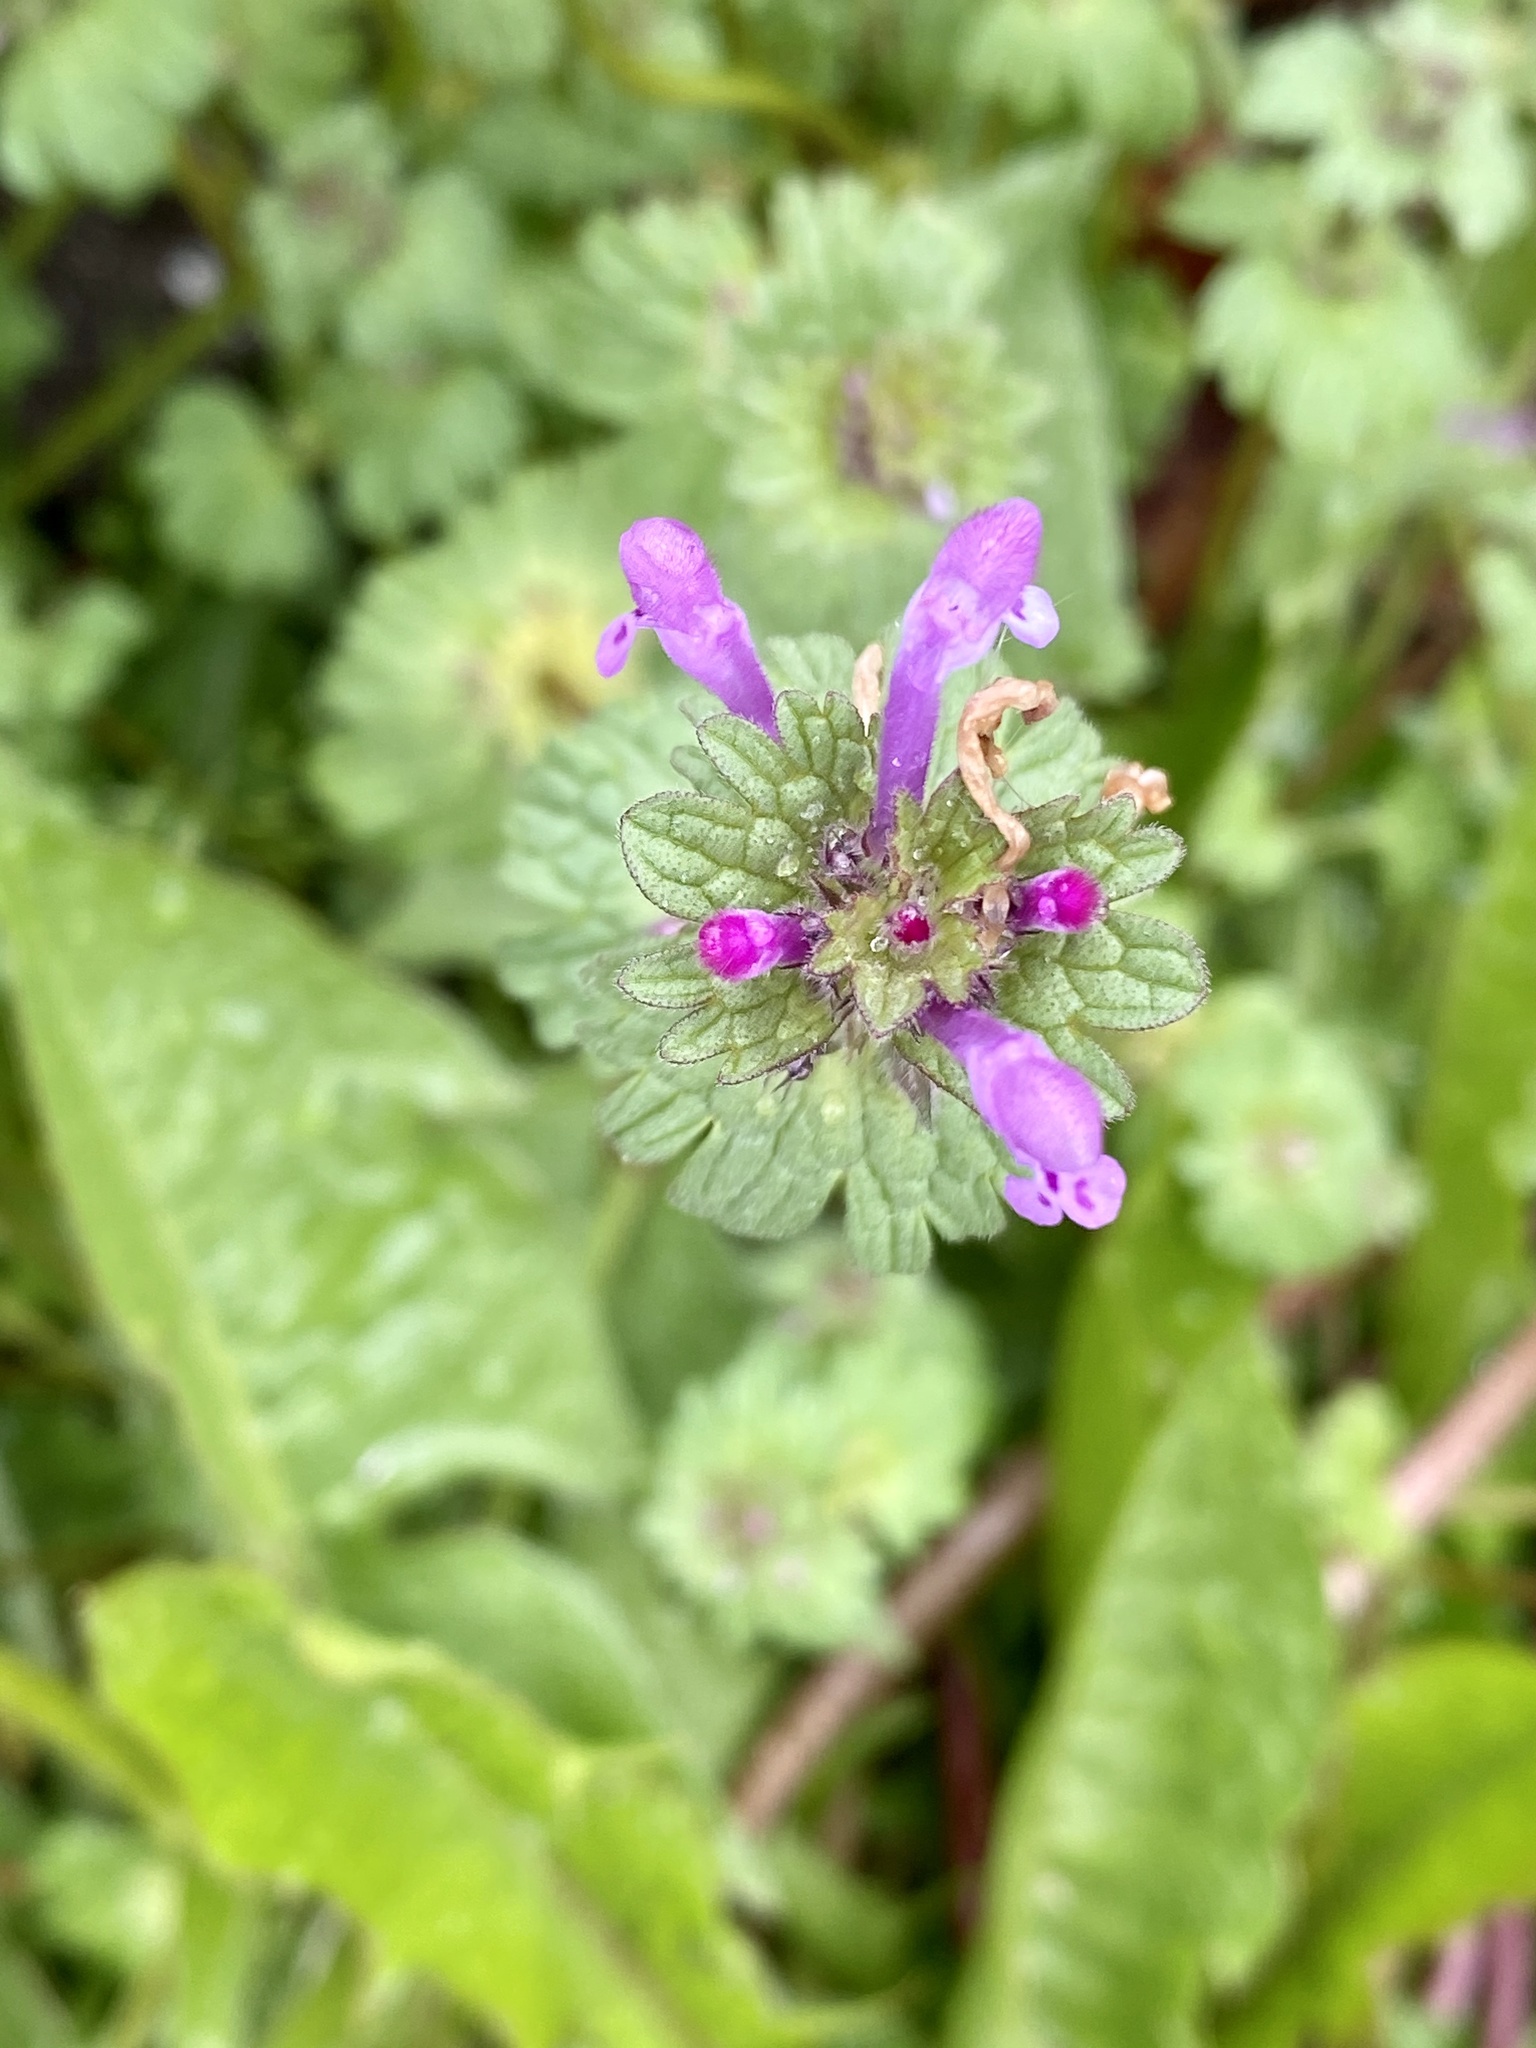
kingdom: Plantae
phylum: Tracheophyta
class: Magnoliopsida
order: Lamiales
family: Lamiaceae
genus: Lamium
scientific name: Lamium amplexicaule
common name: Henbit dead-nettle
